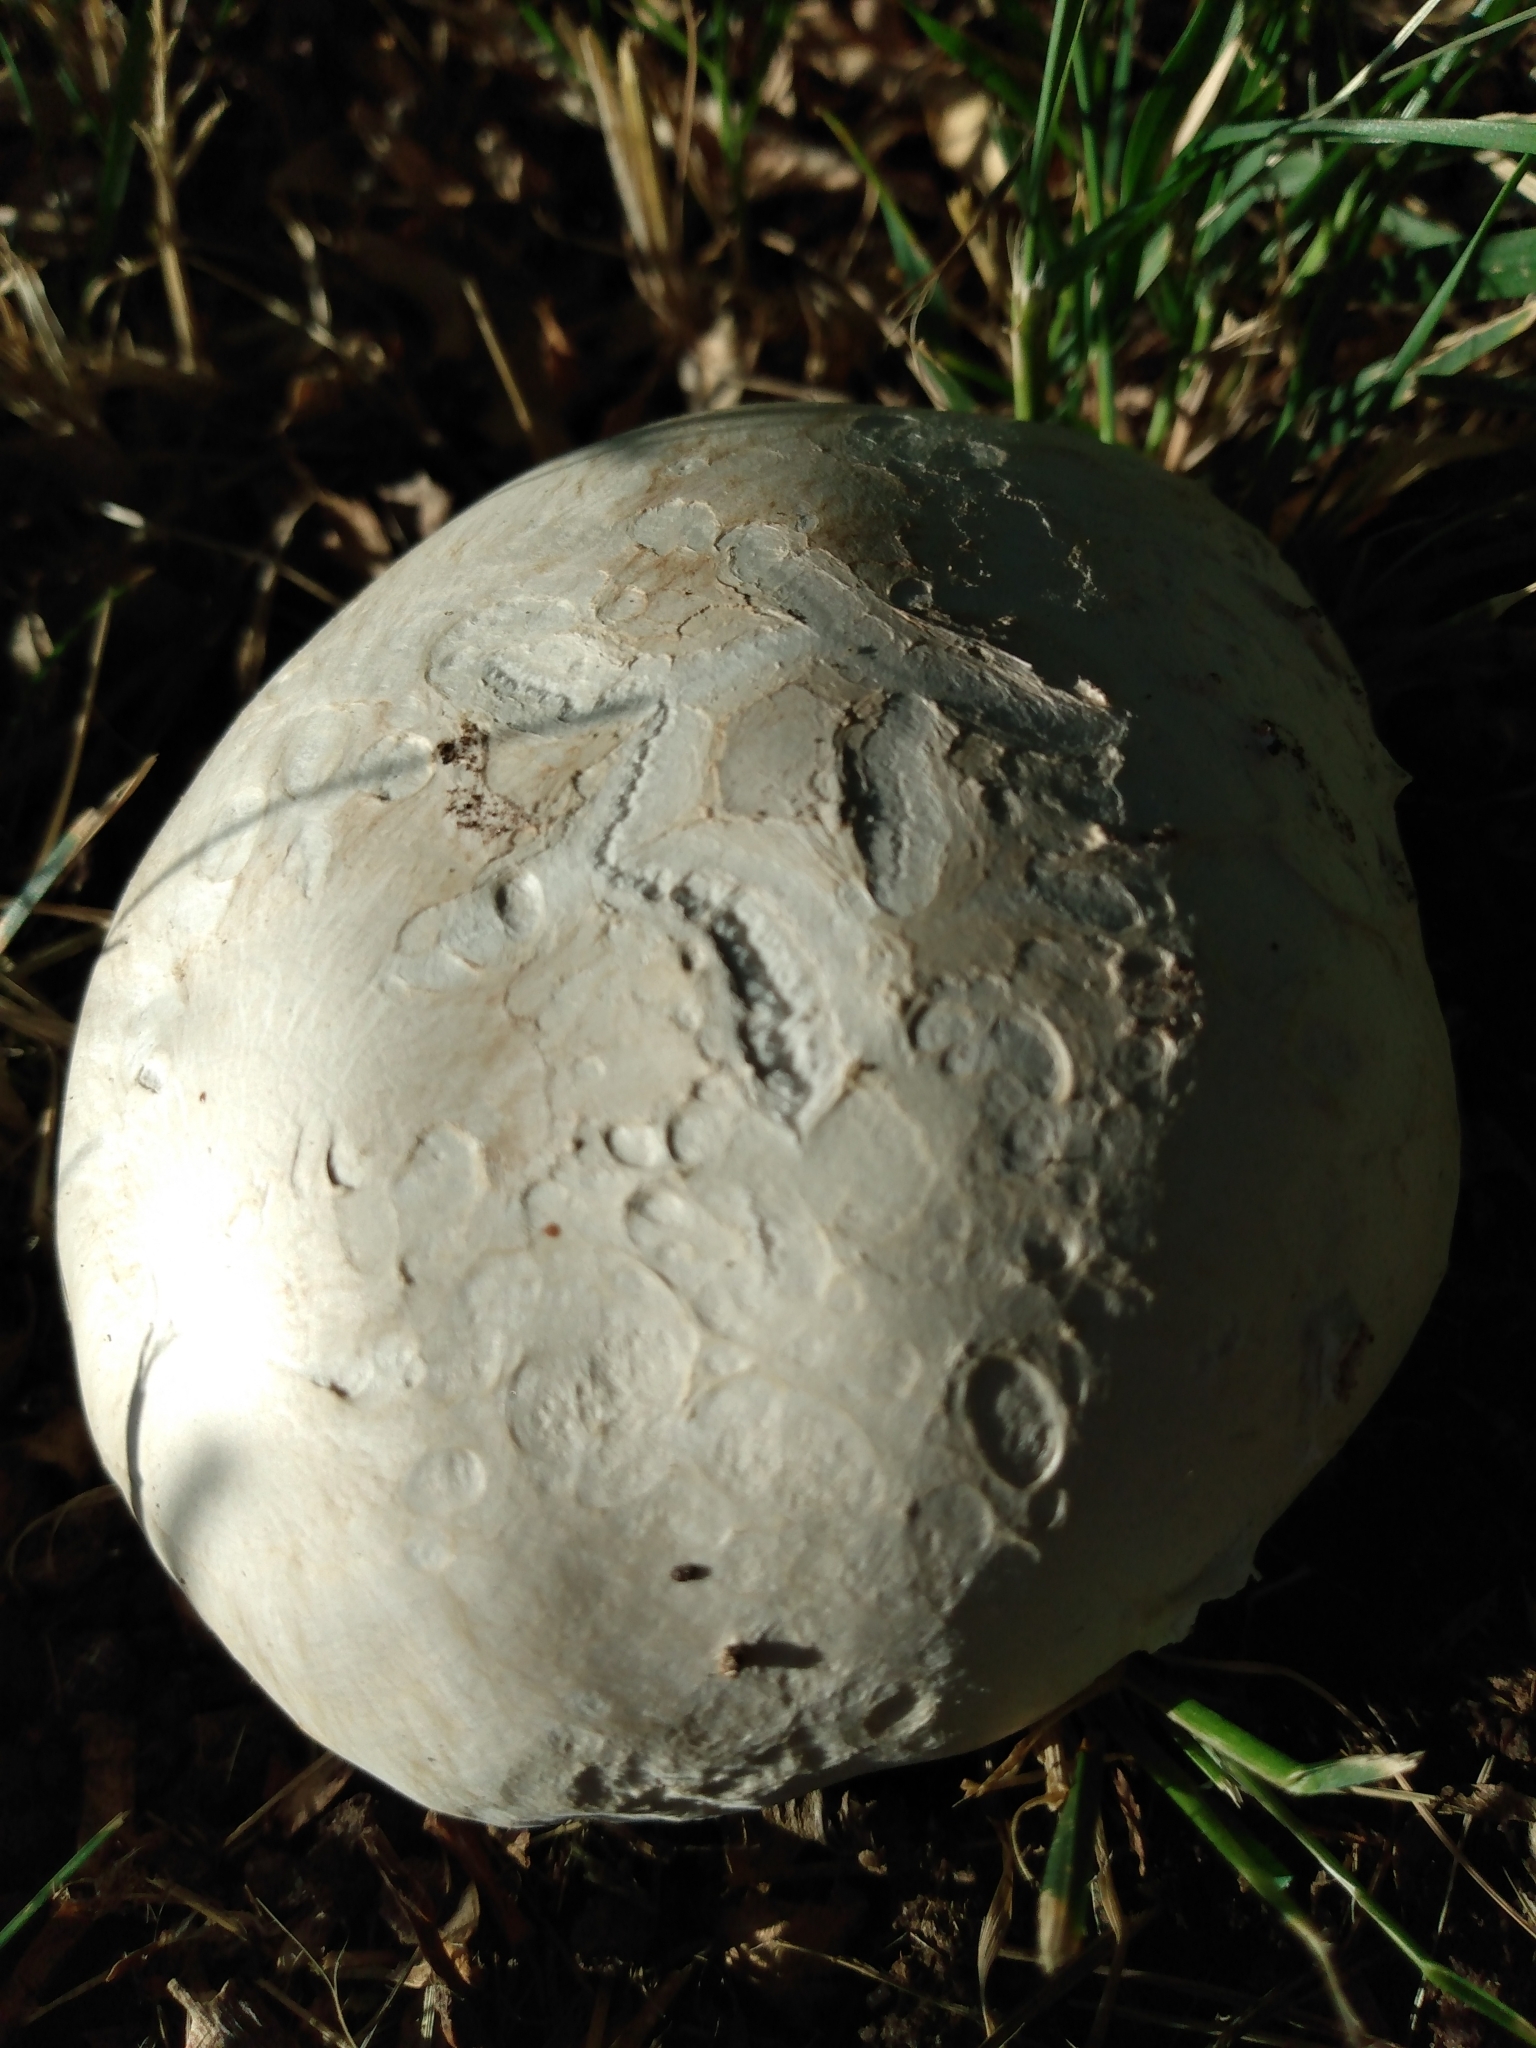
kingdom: Fungi
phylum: Basidiomycota
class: Agaricomycetes
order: Agaricales
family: Agaricaceae
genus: Mycenastrum
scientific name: Mycenastrum corium
